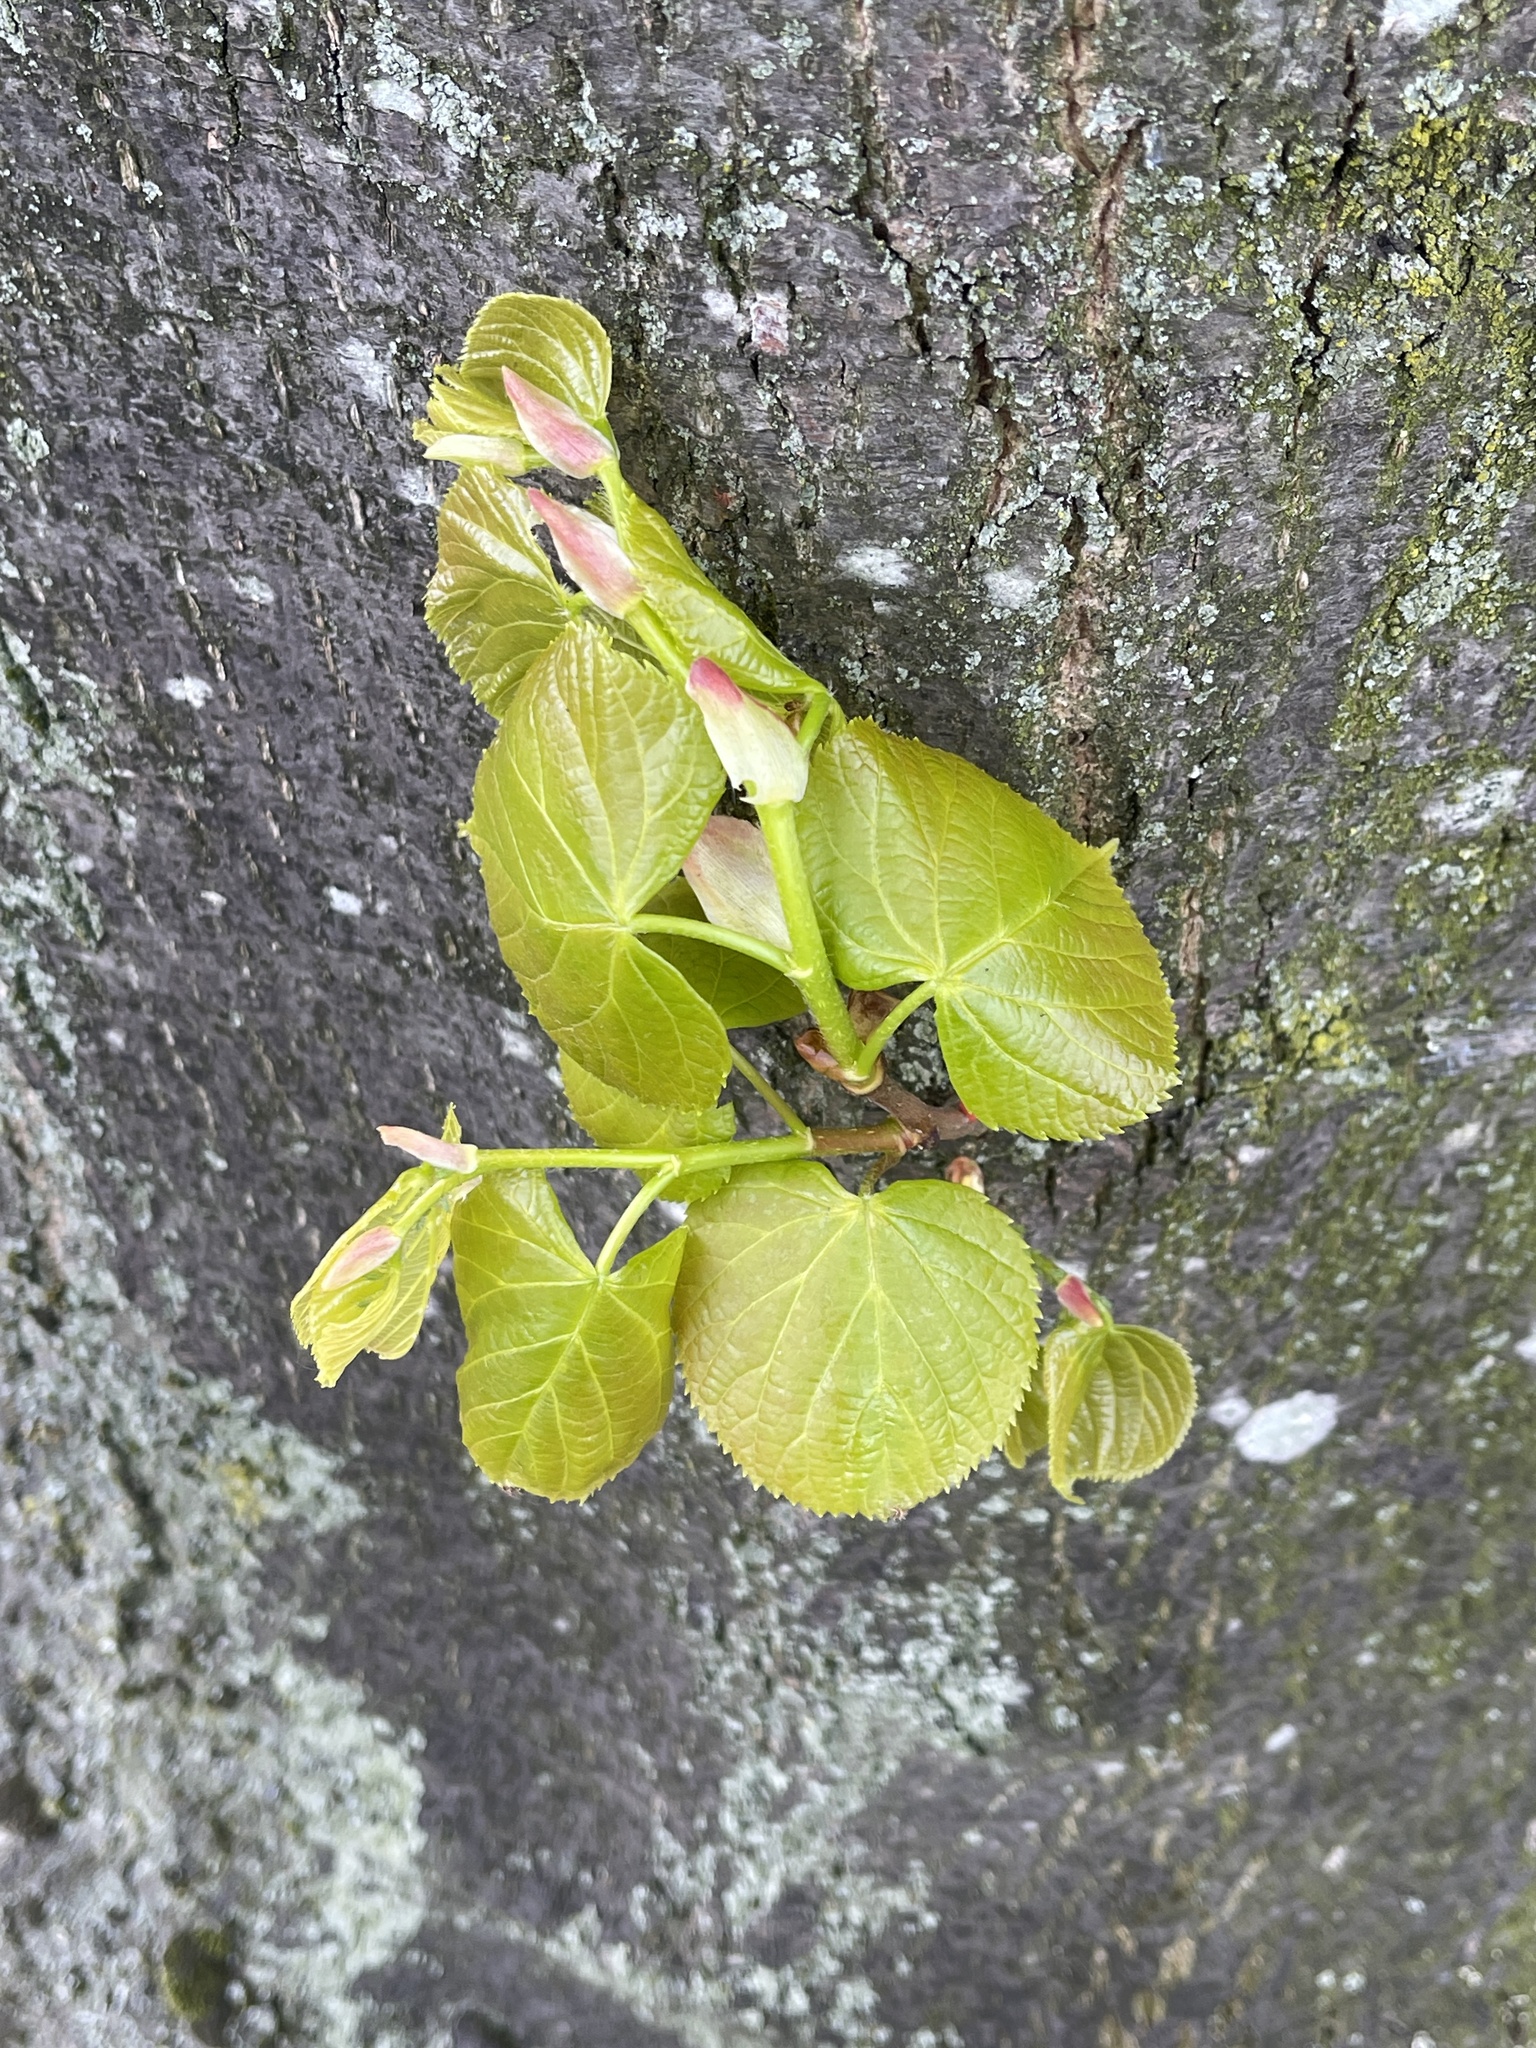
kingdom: Plantae
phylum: Tracheophyta
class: Magnoliopsida
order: Malvales
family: Malvaceae
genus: Tilia
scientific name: Tilia europaea
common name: European linden
